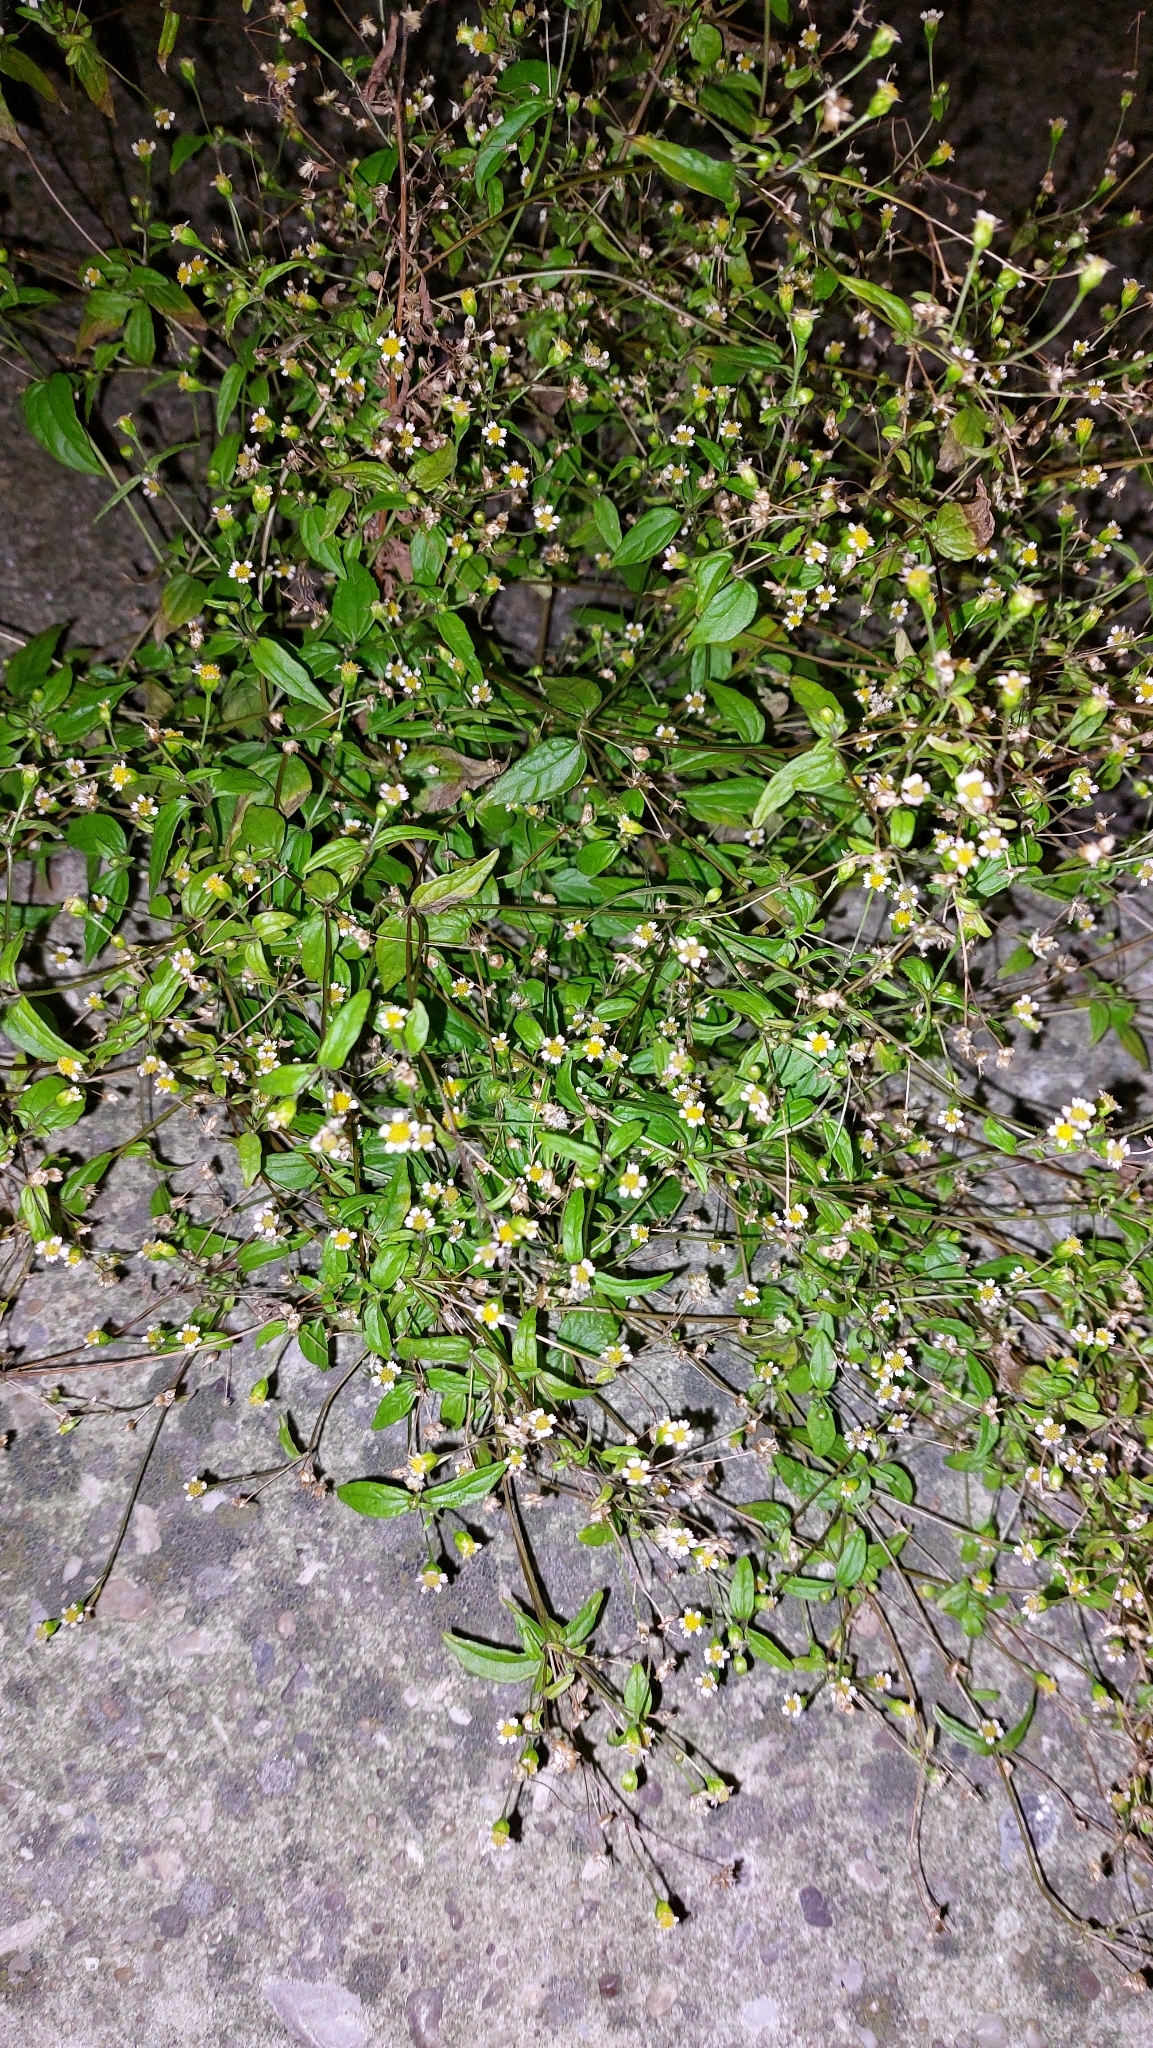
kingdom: Plantae
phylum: Tracheophyta
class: Magnoliopsida
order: Asterales
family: Asteraceae
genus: Galinsoga
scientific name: Galinsoga parviflora
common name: Gallant soldier
